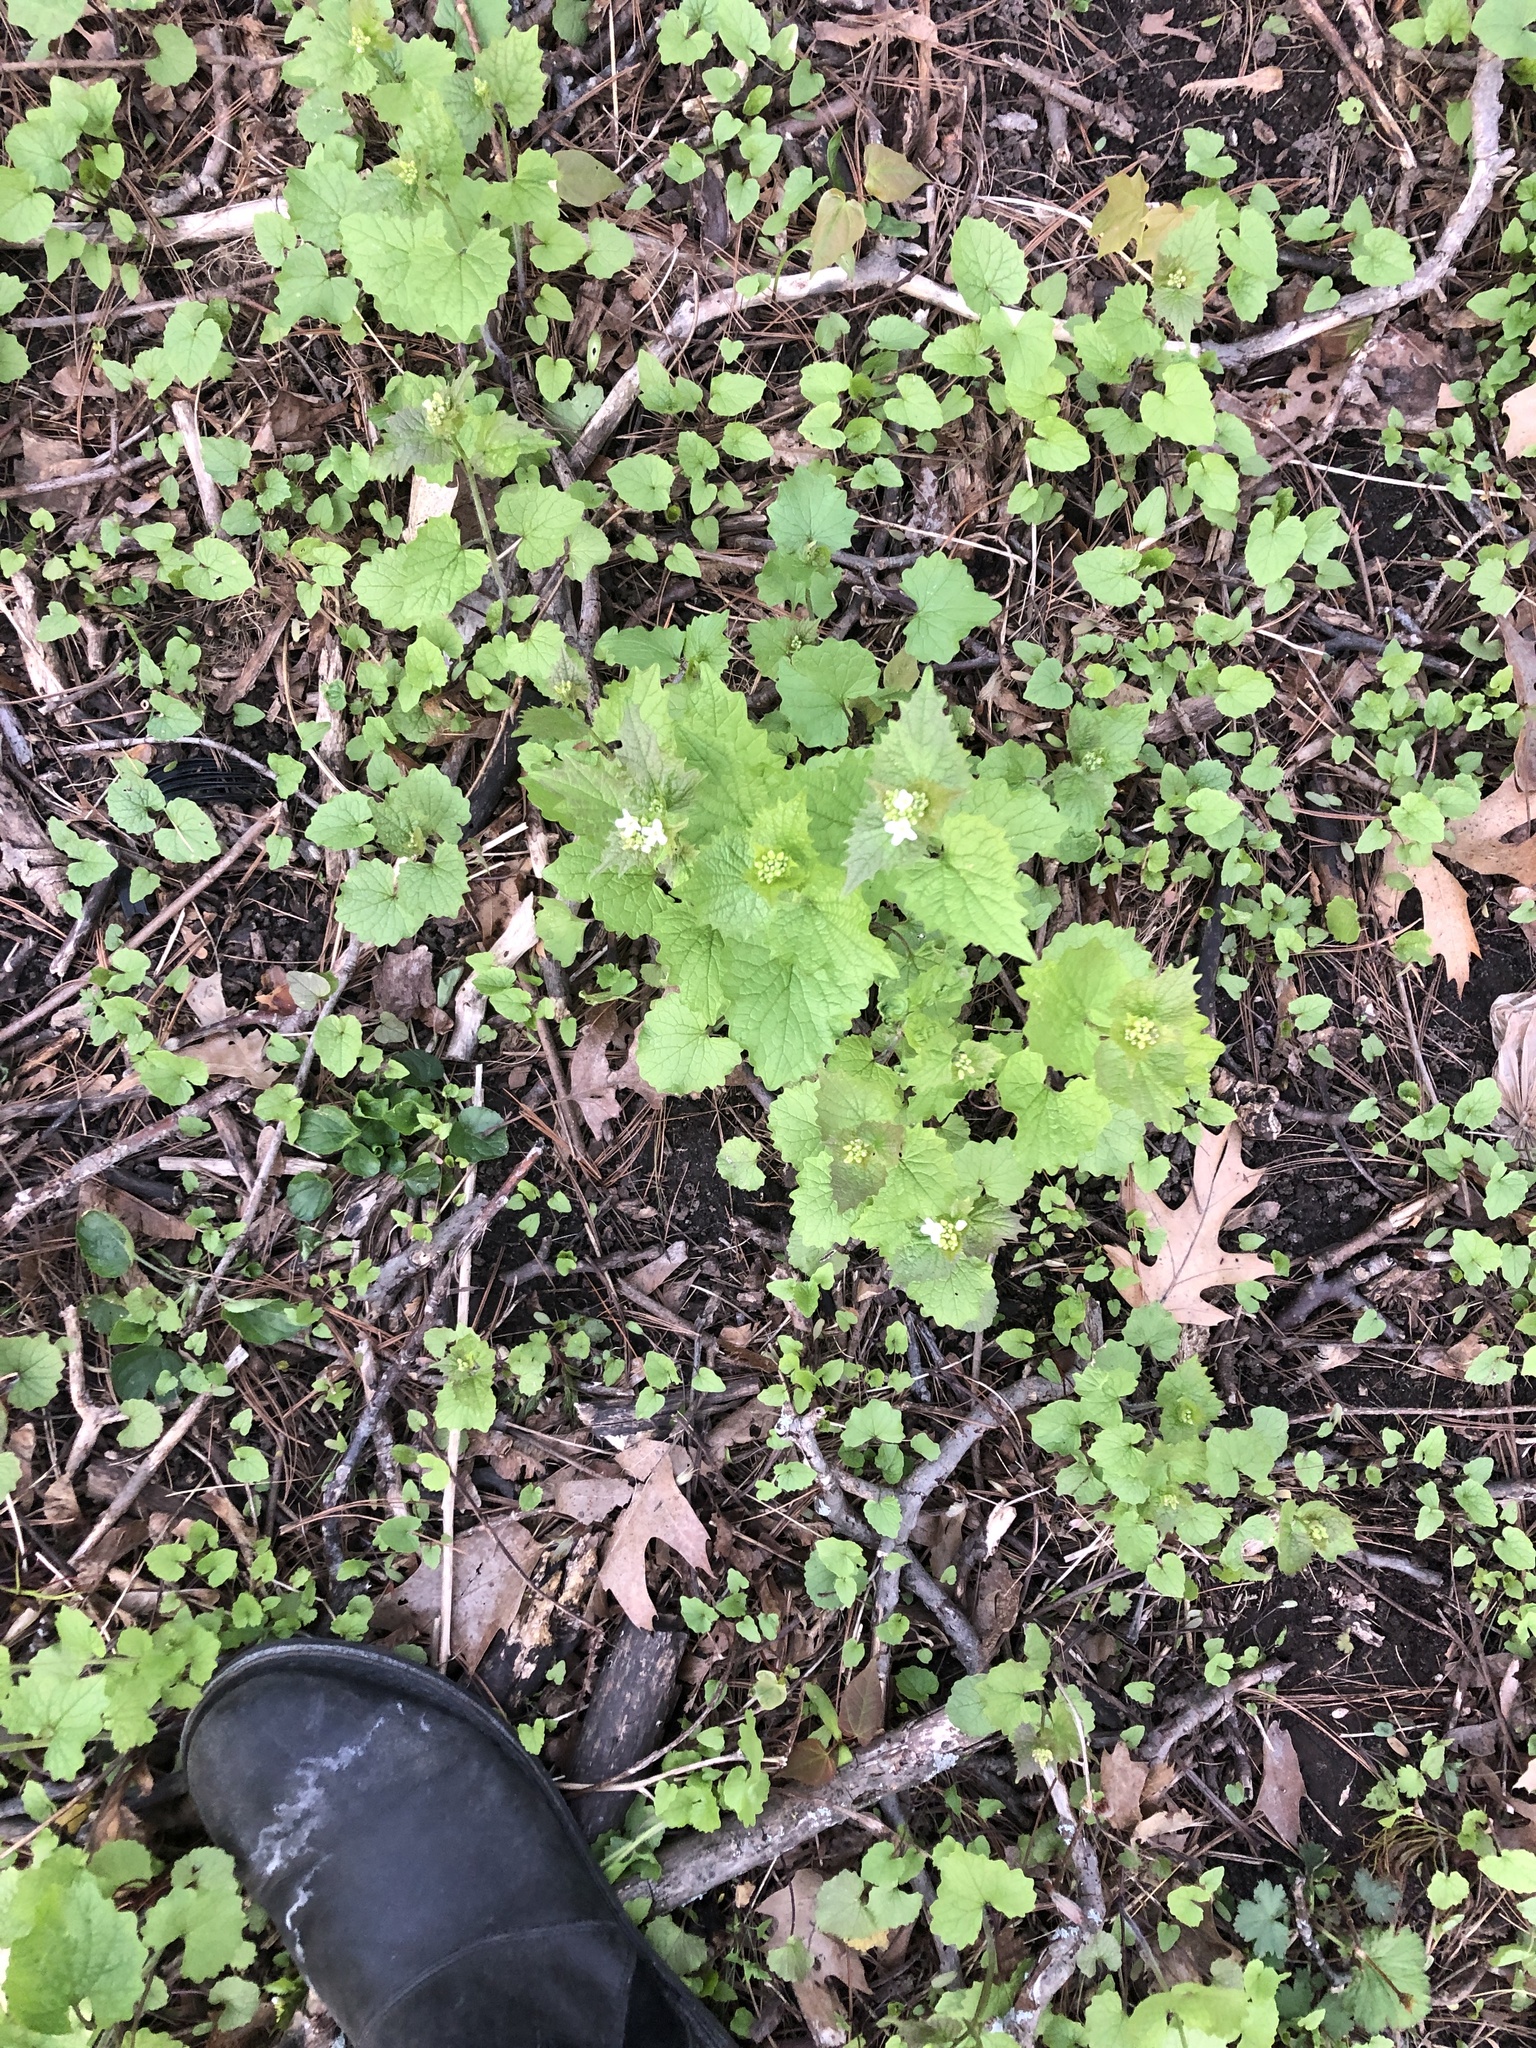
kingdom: Plantae
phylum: Tracheophyta
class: Magnoliopsida
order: Brassicales
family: Brassicaceae
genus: Alliaria
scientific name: Alliaria petiolata
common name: Garlic mustard
